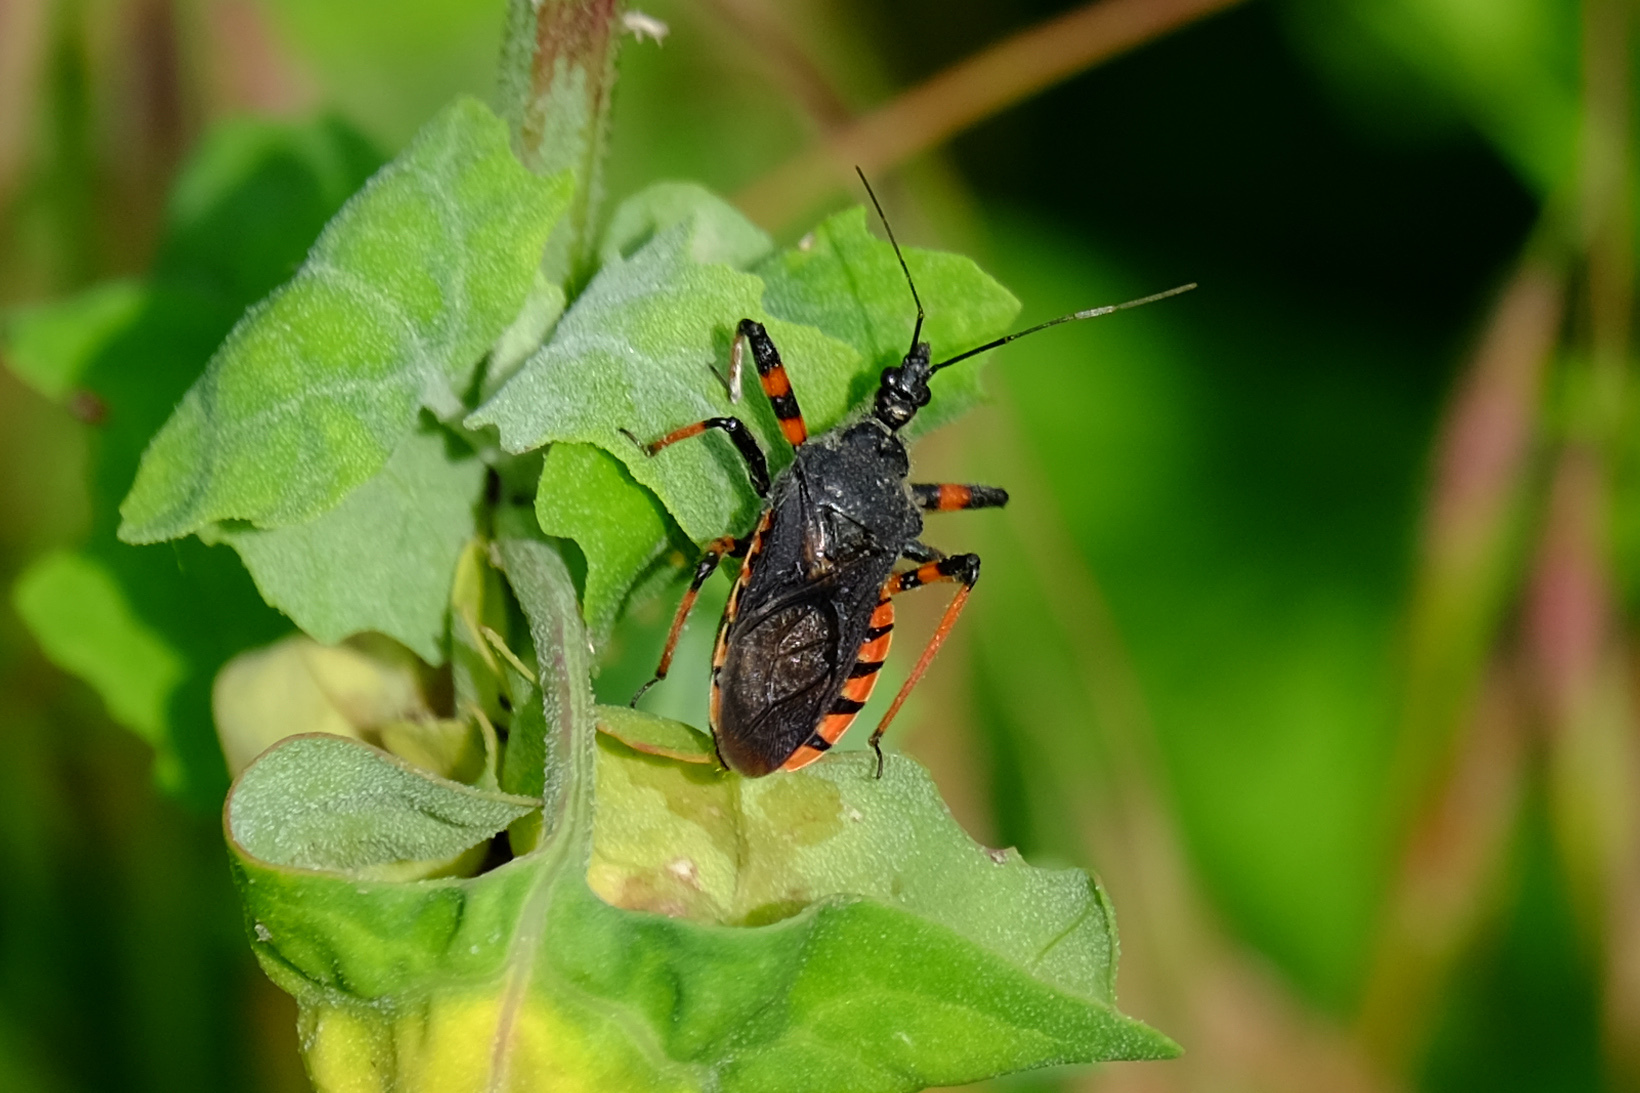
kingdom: Animalia
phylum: Arthropoda
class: Insecta
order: Hemiptera
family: Reduviidae
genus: Rhynocoris
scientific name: Rhynocoris annulatus
